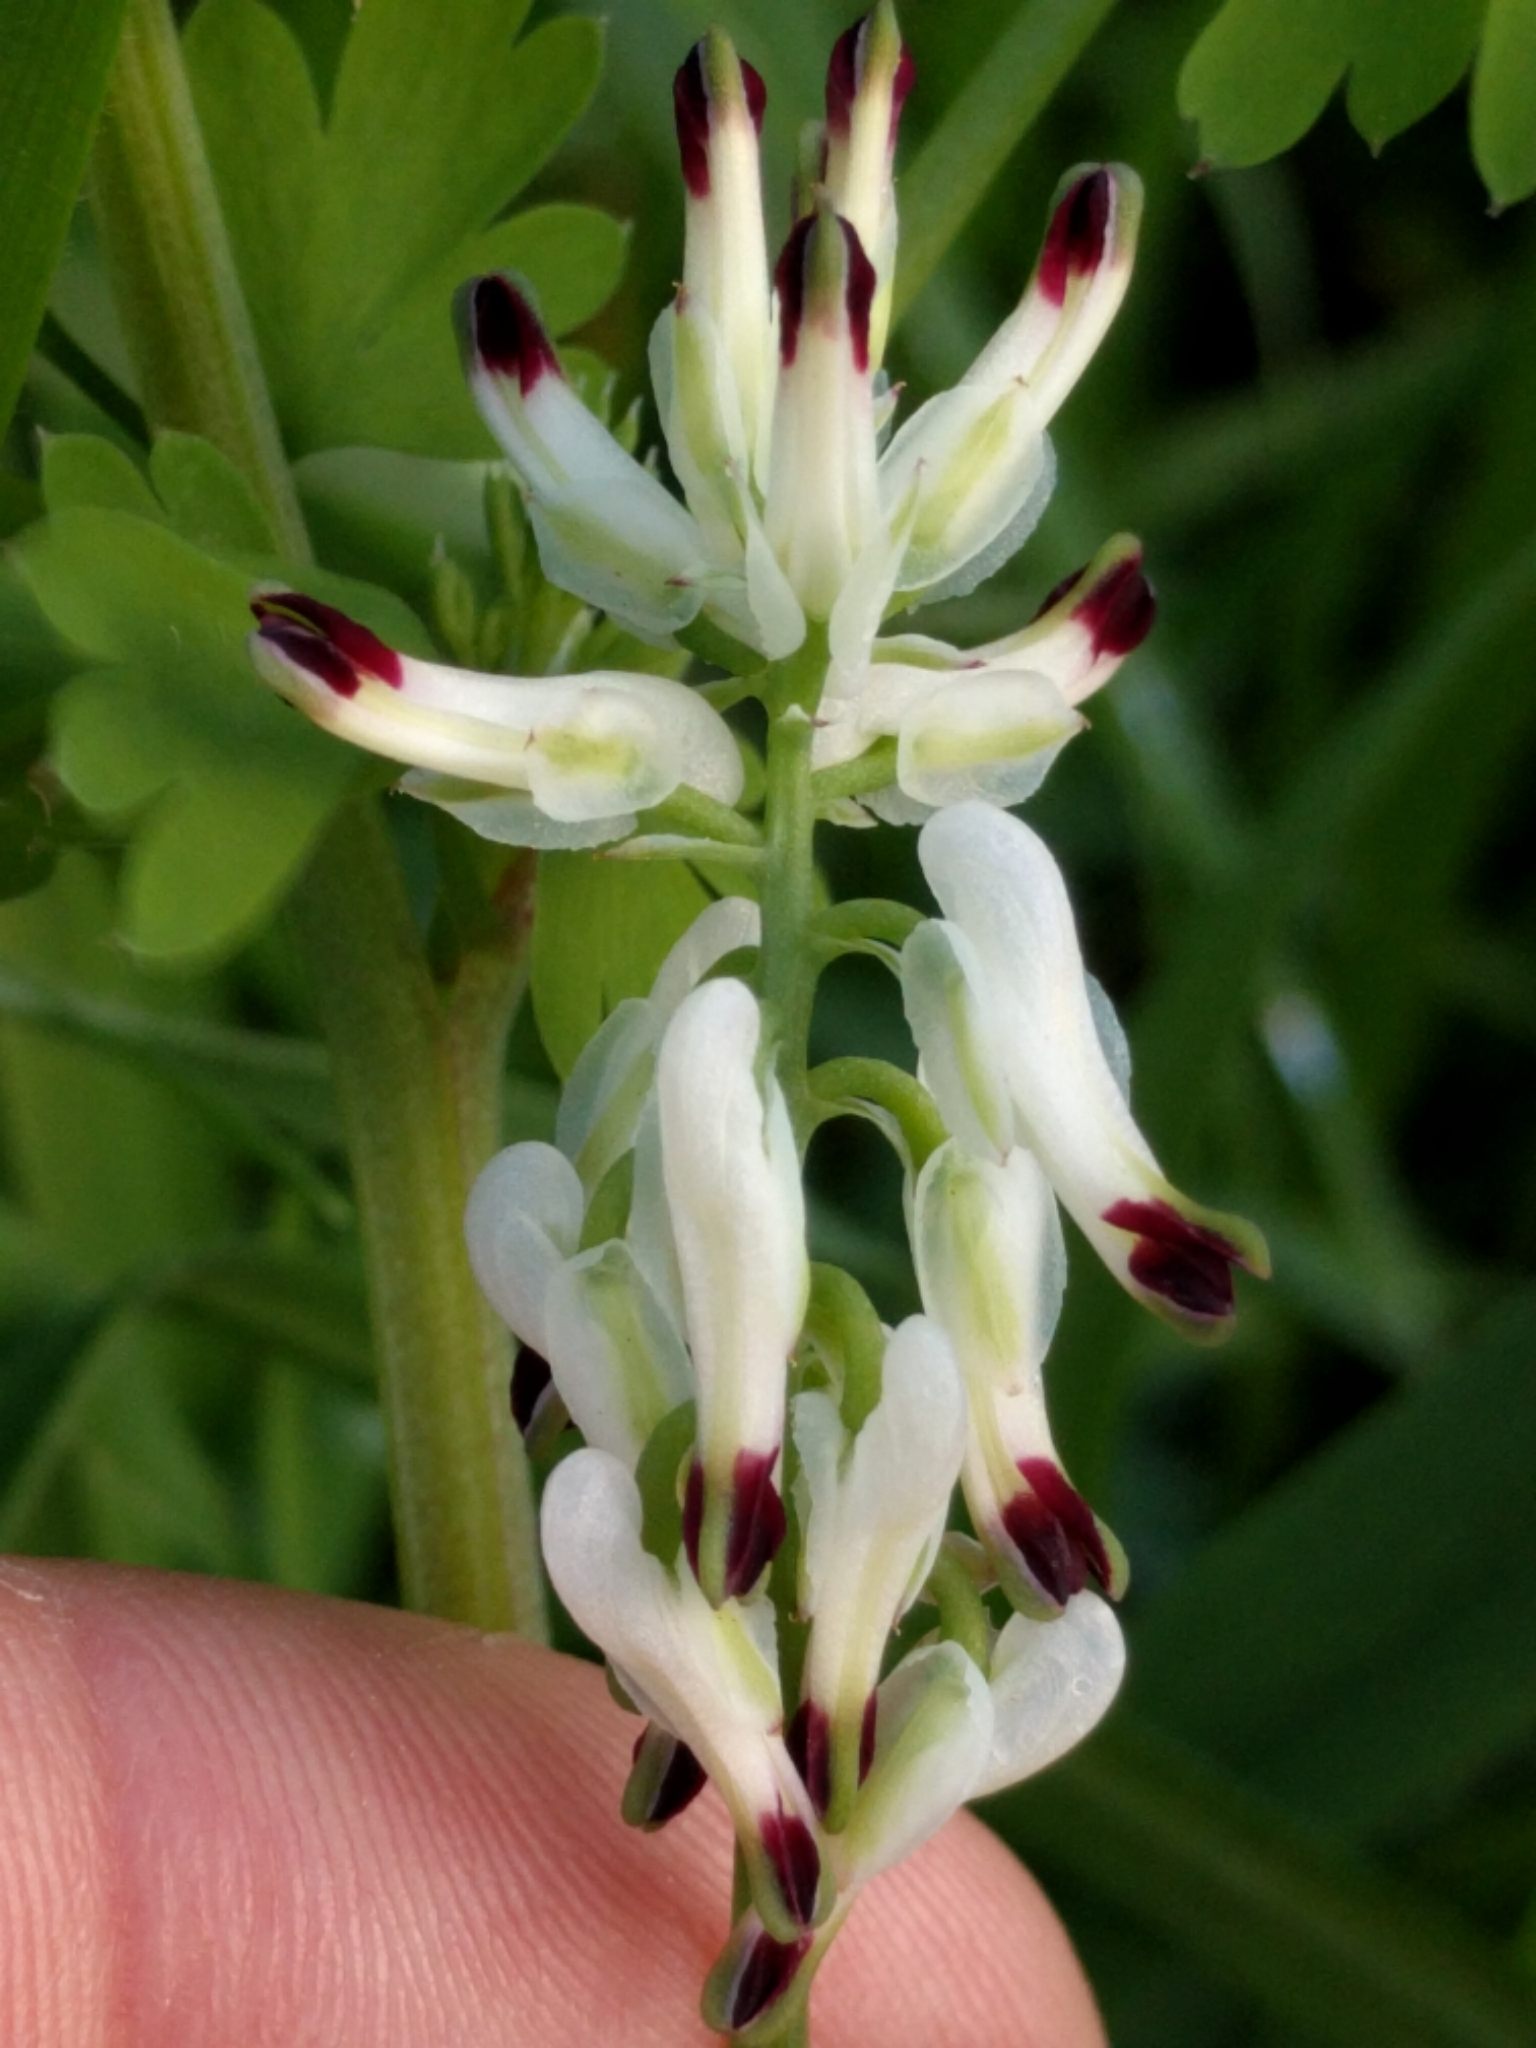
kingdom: Plantae
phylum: Tracheophyta
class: Magnoliopsida
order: Ranunculales
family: Papaveraceae
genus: Fumaria
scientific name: Fumaria capreolata
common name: White ramping-fumitory
